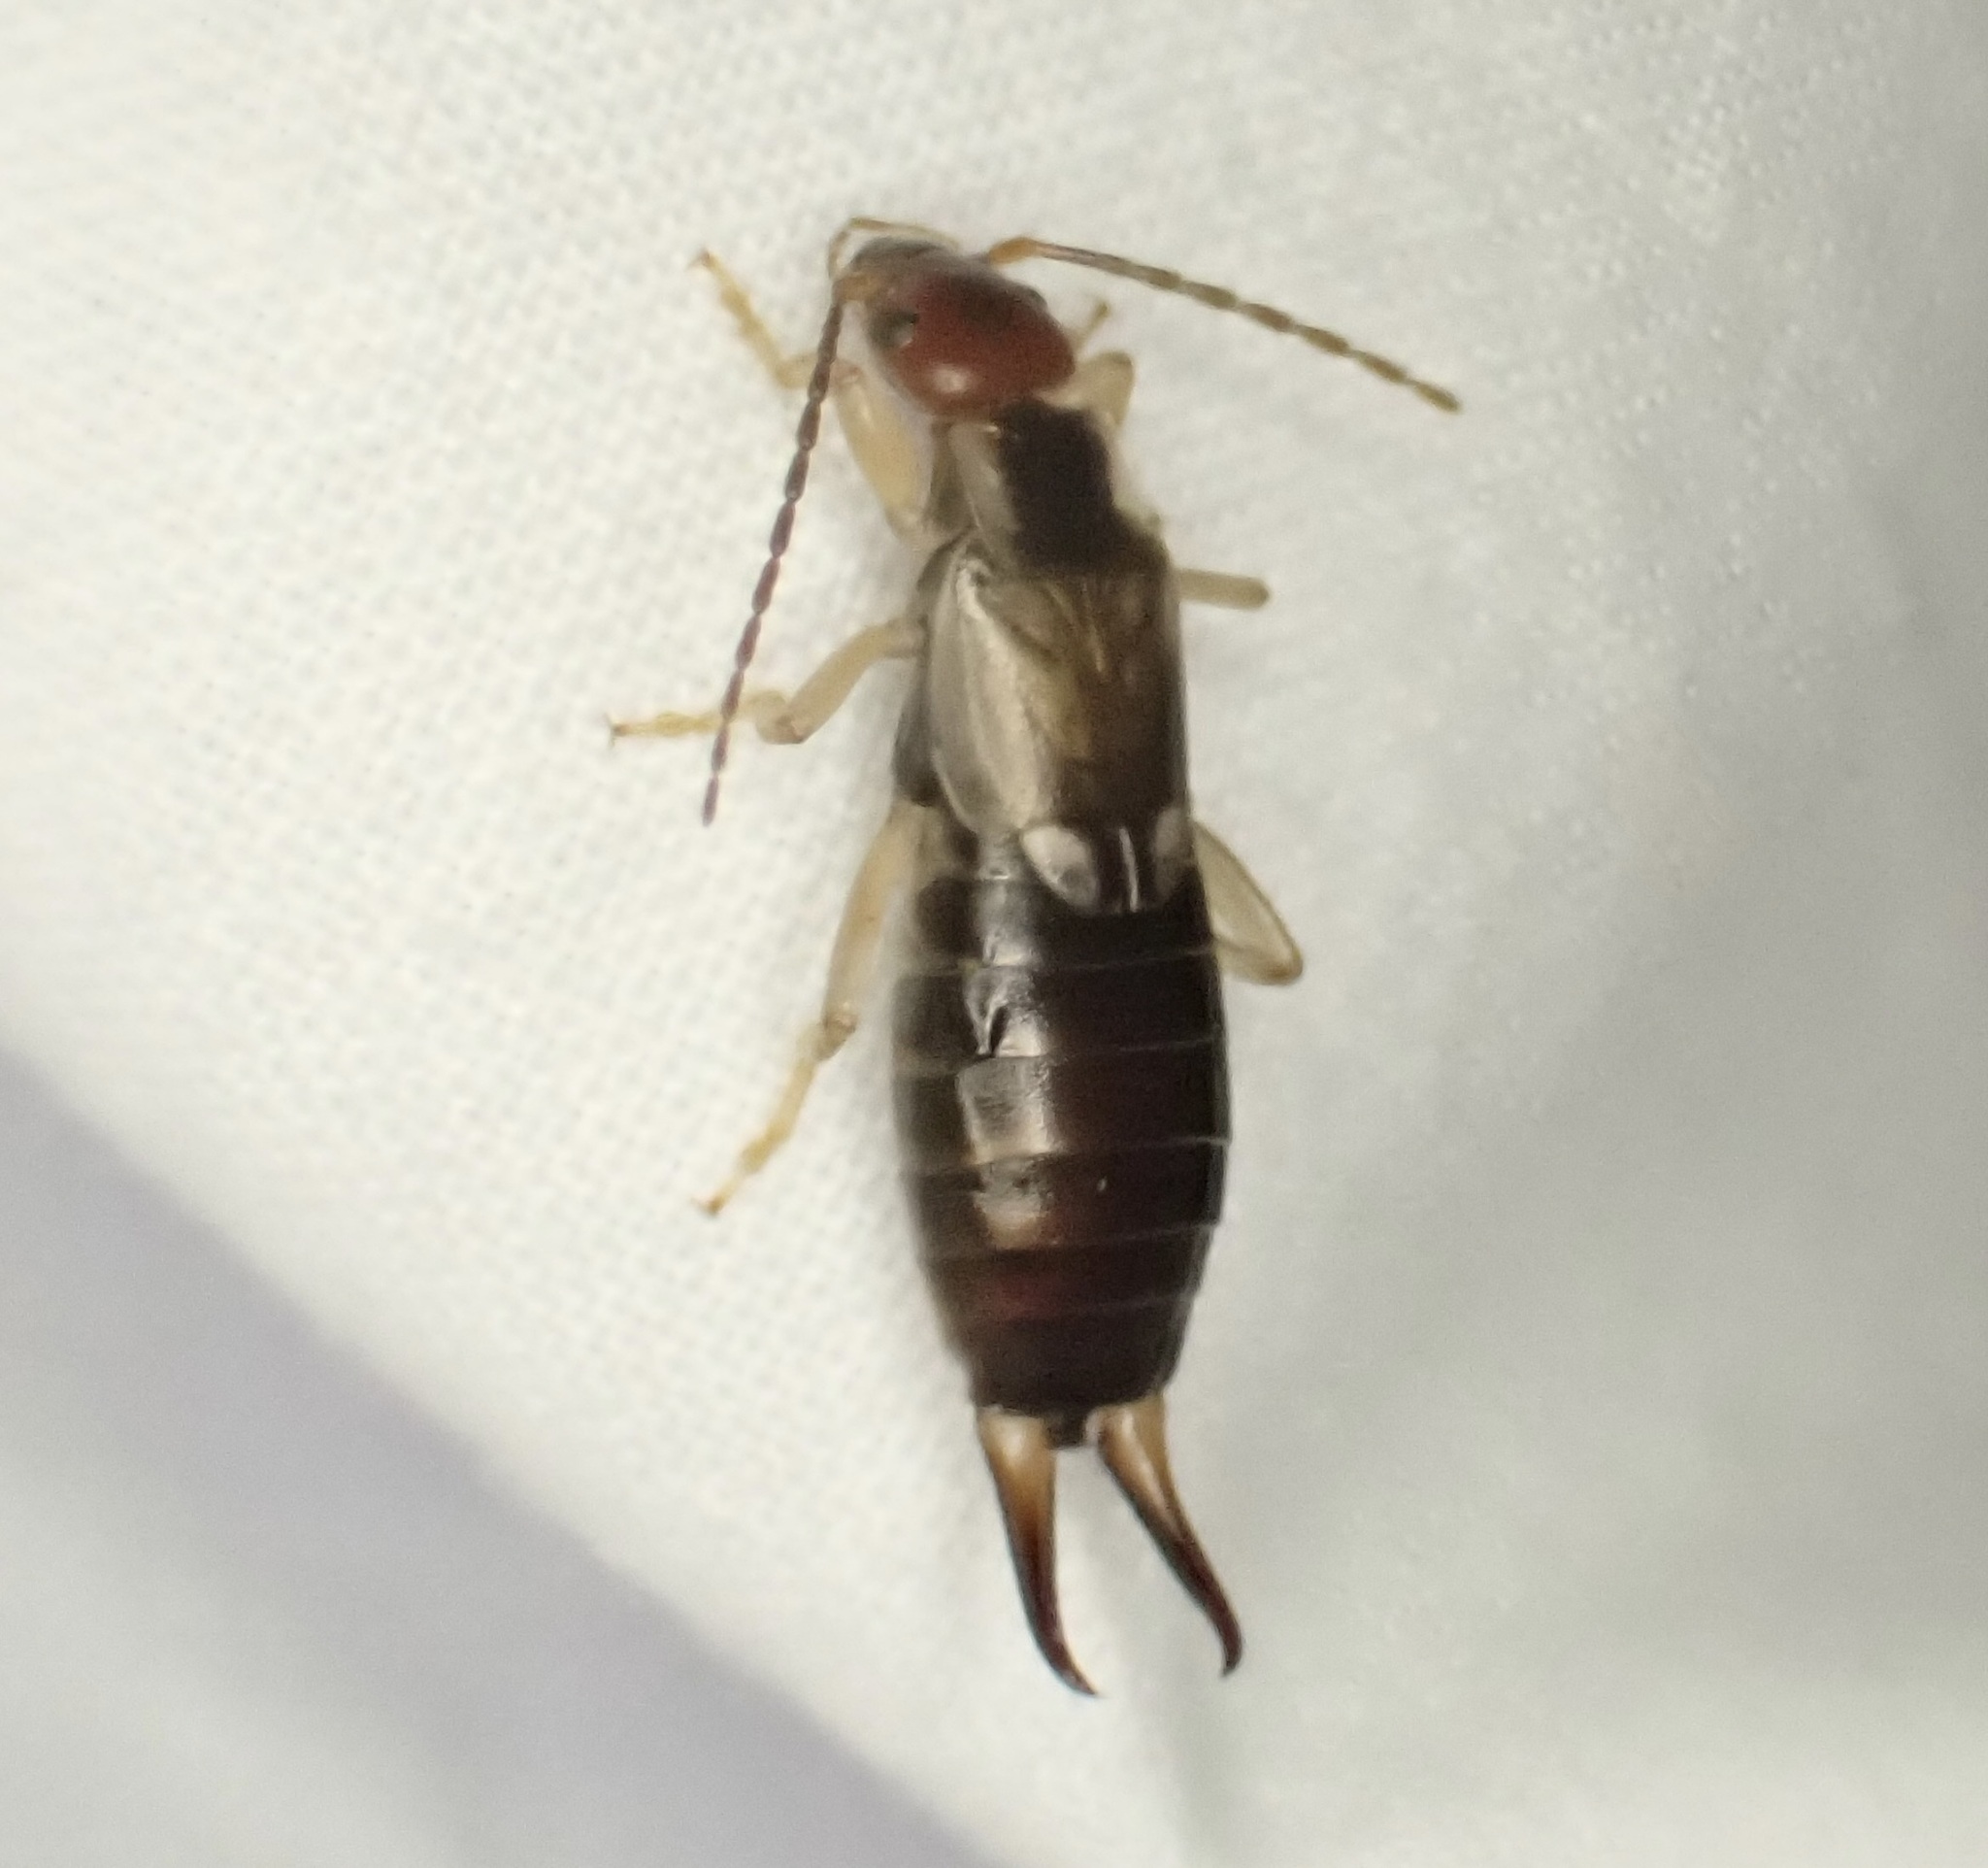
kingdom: Animalia
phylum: Arthropoda
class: Insecta
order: Dermaptera
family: Forficulidae
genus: Forficula
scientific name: Forficula dentata
